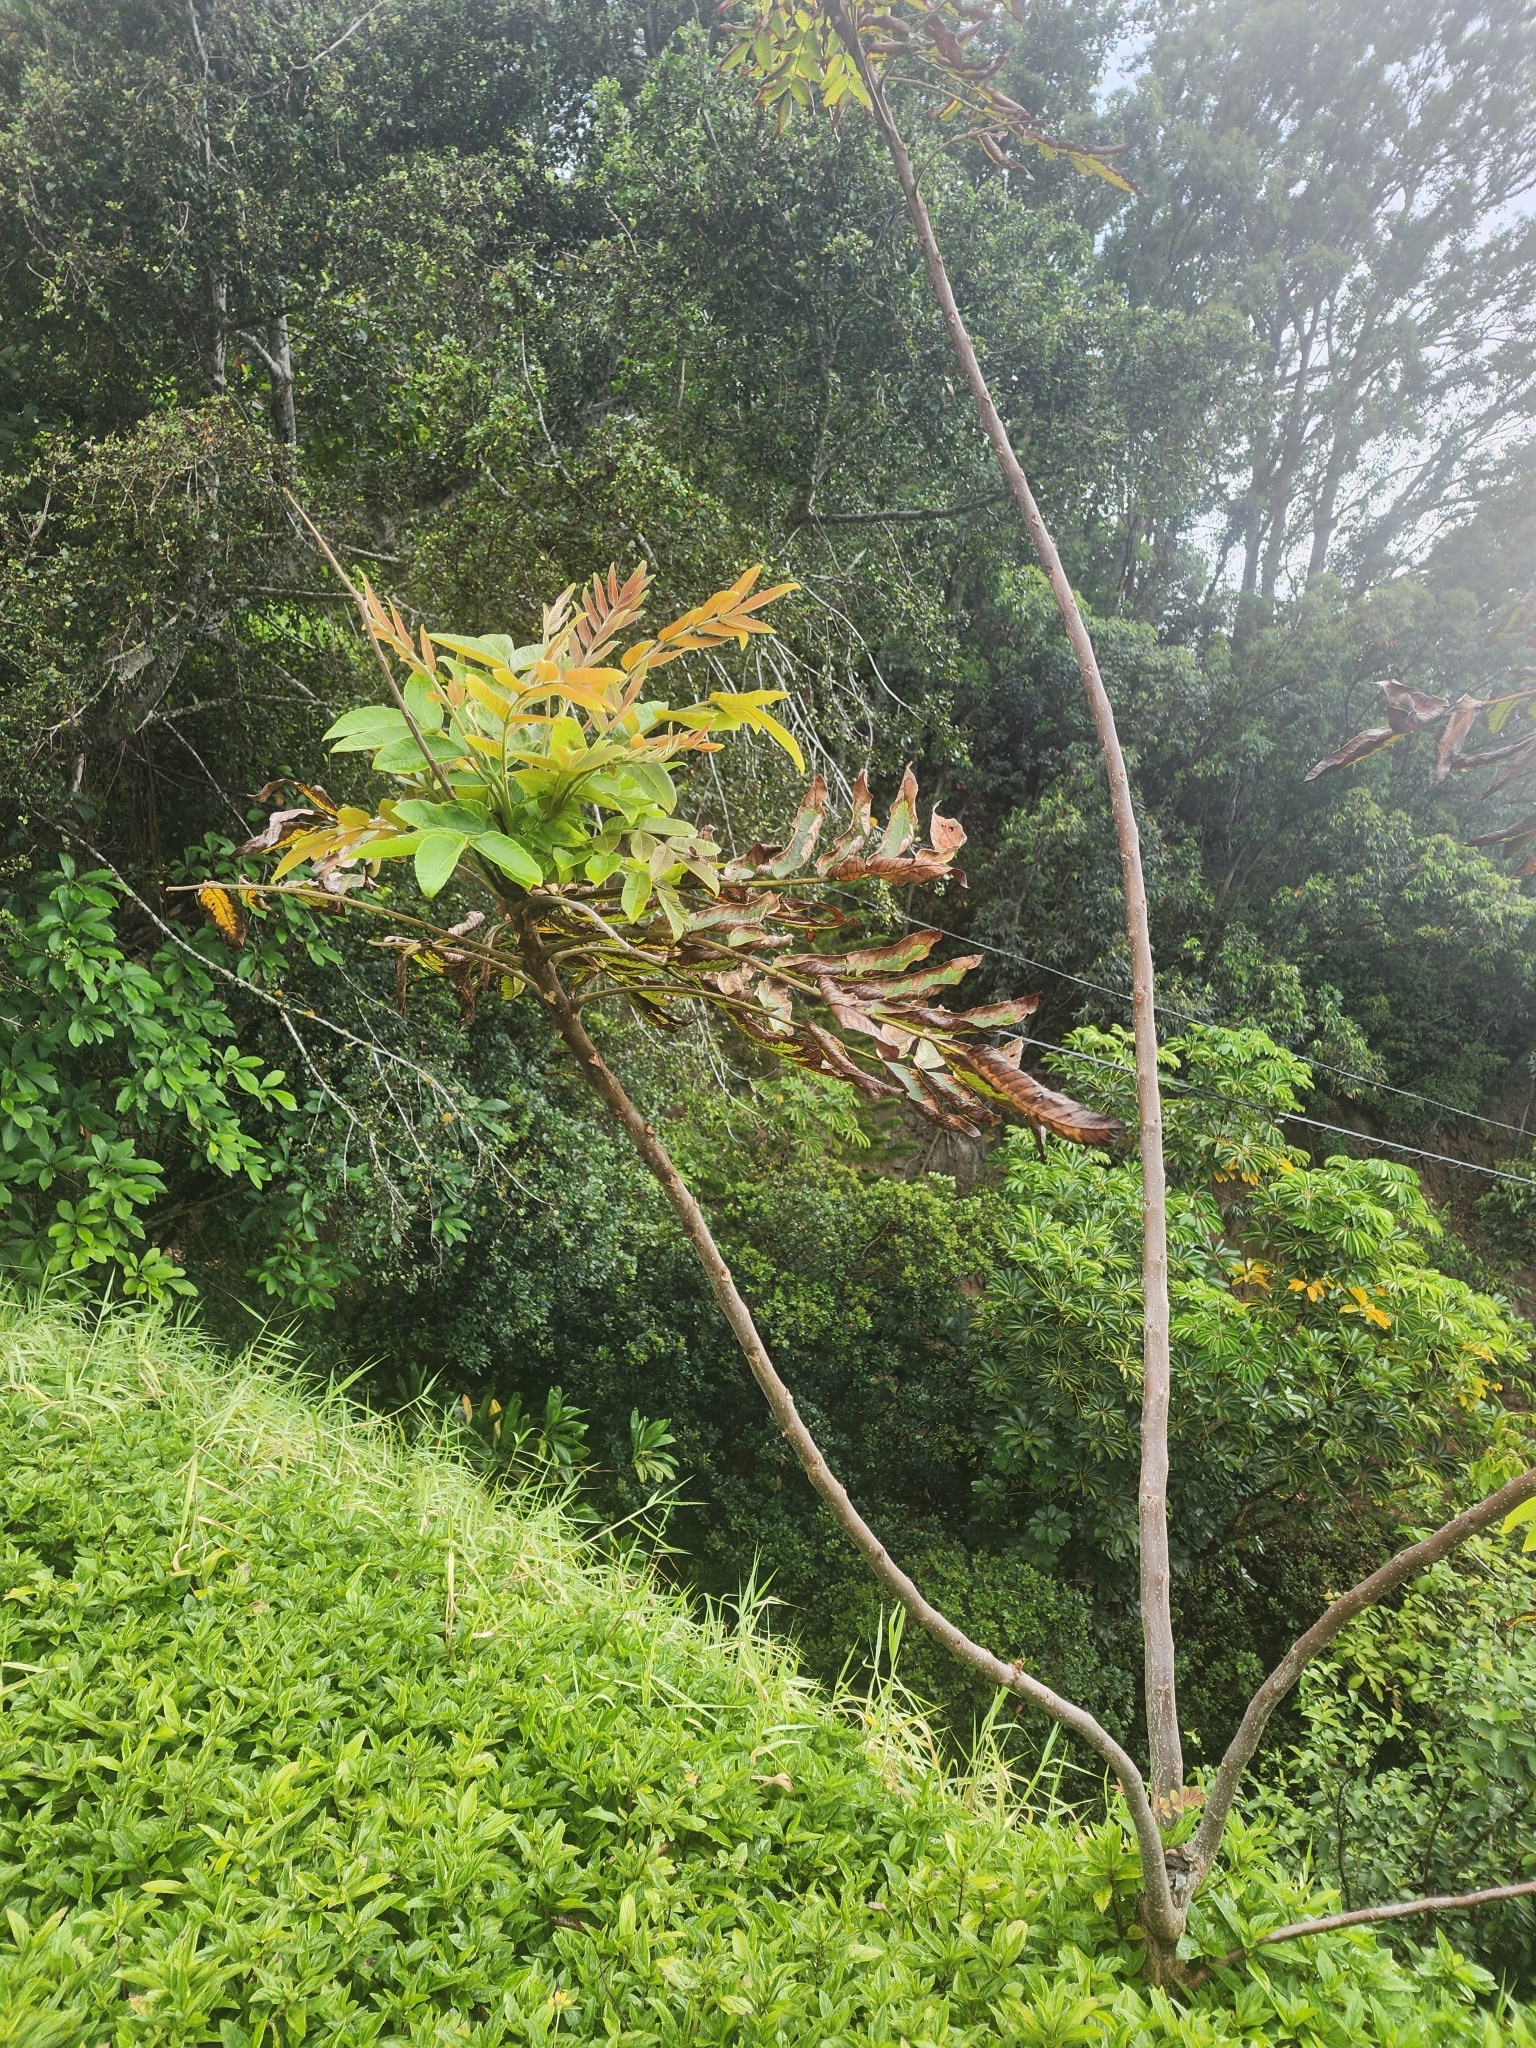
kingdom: Plantae
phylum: Tracheophyta
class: Magnoliopsida
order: Sapindales
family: Anacardiaceae
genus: Rhus
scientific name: Rhus sandwicensis
